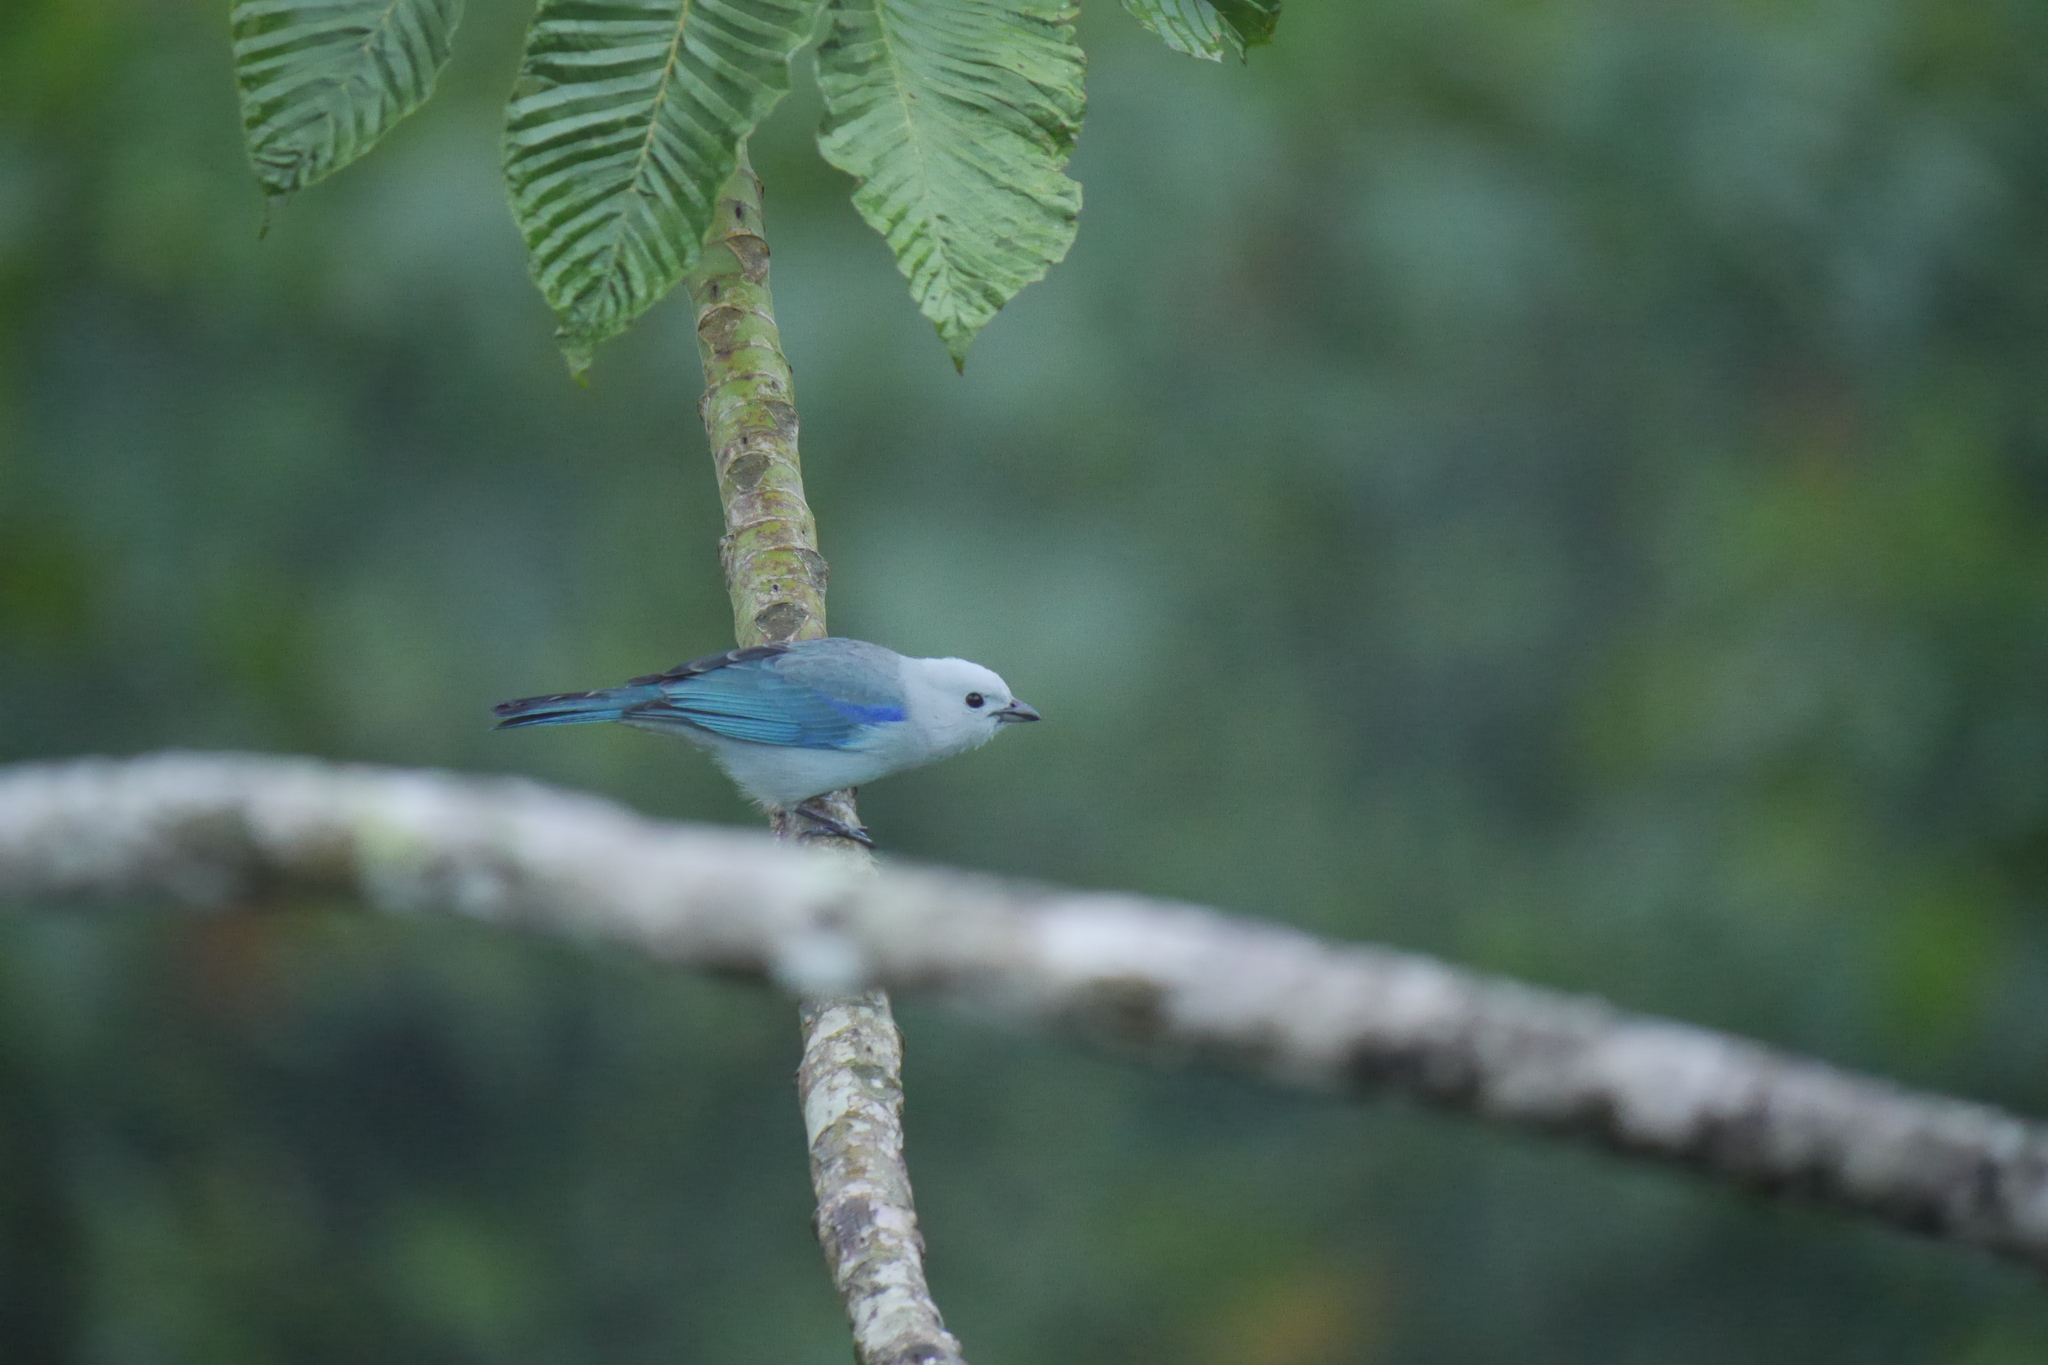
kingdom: Animalia
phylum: Chordata
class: Aves
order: Passeriformes
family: Thraupidae
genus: Thraupis
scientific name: Thraupis episcopus
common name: Blue-grey tanager
